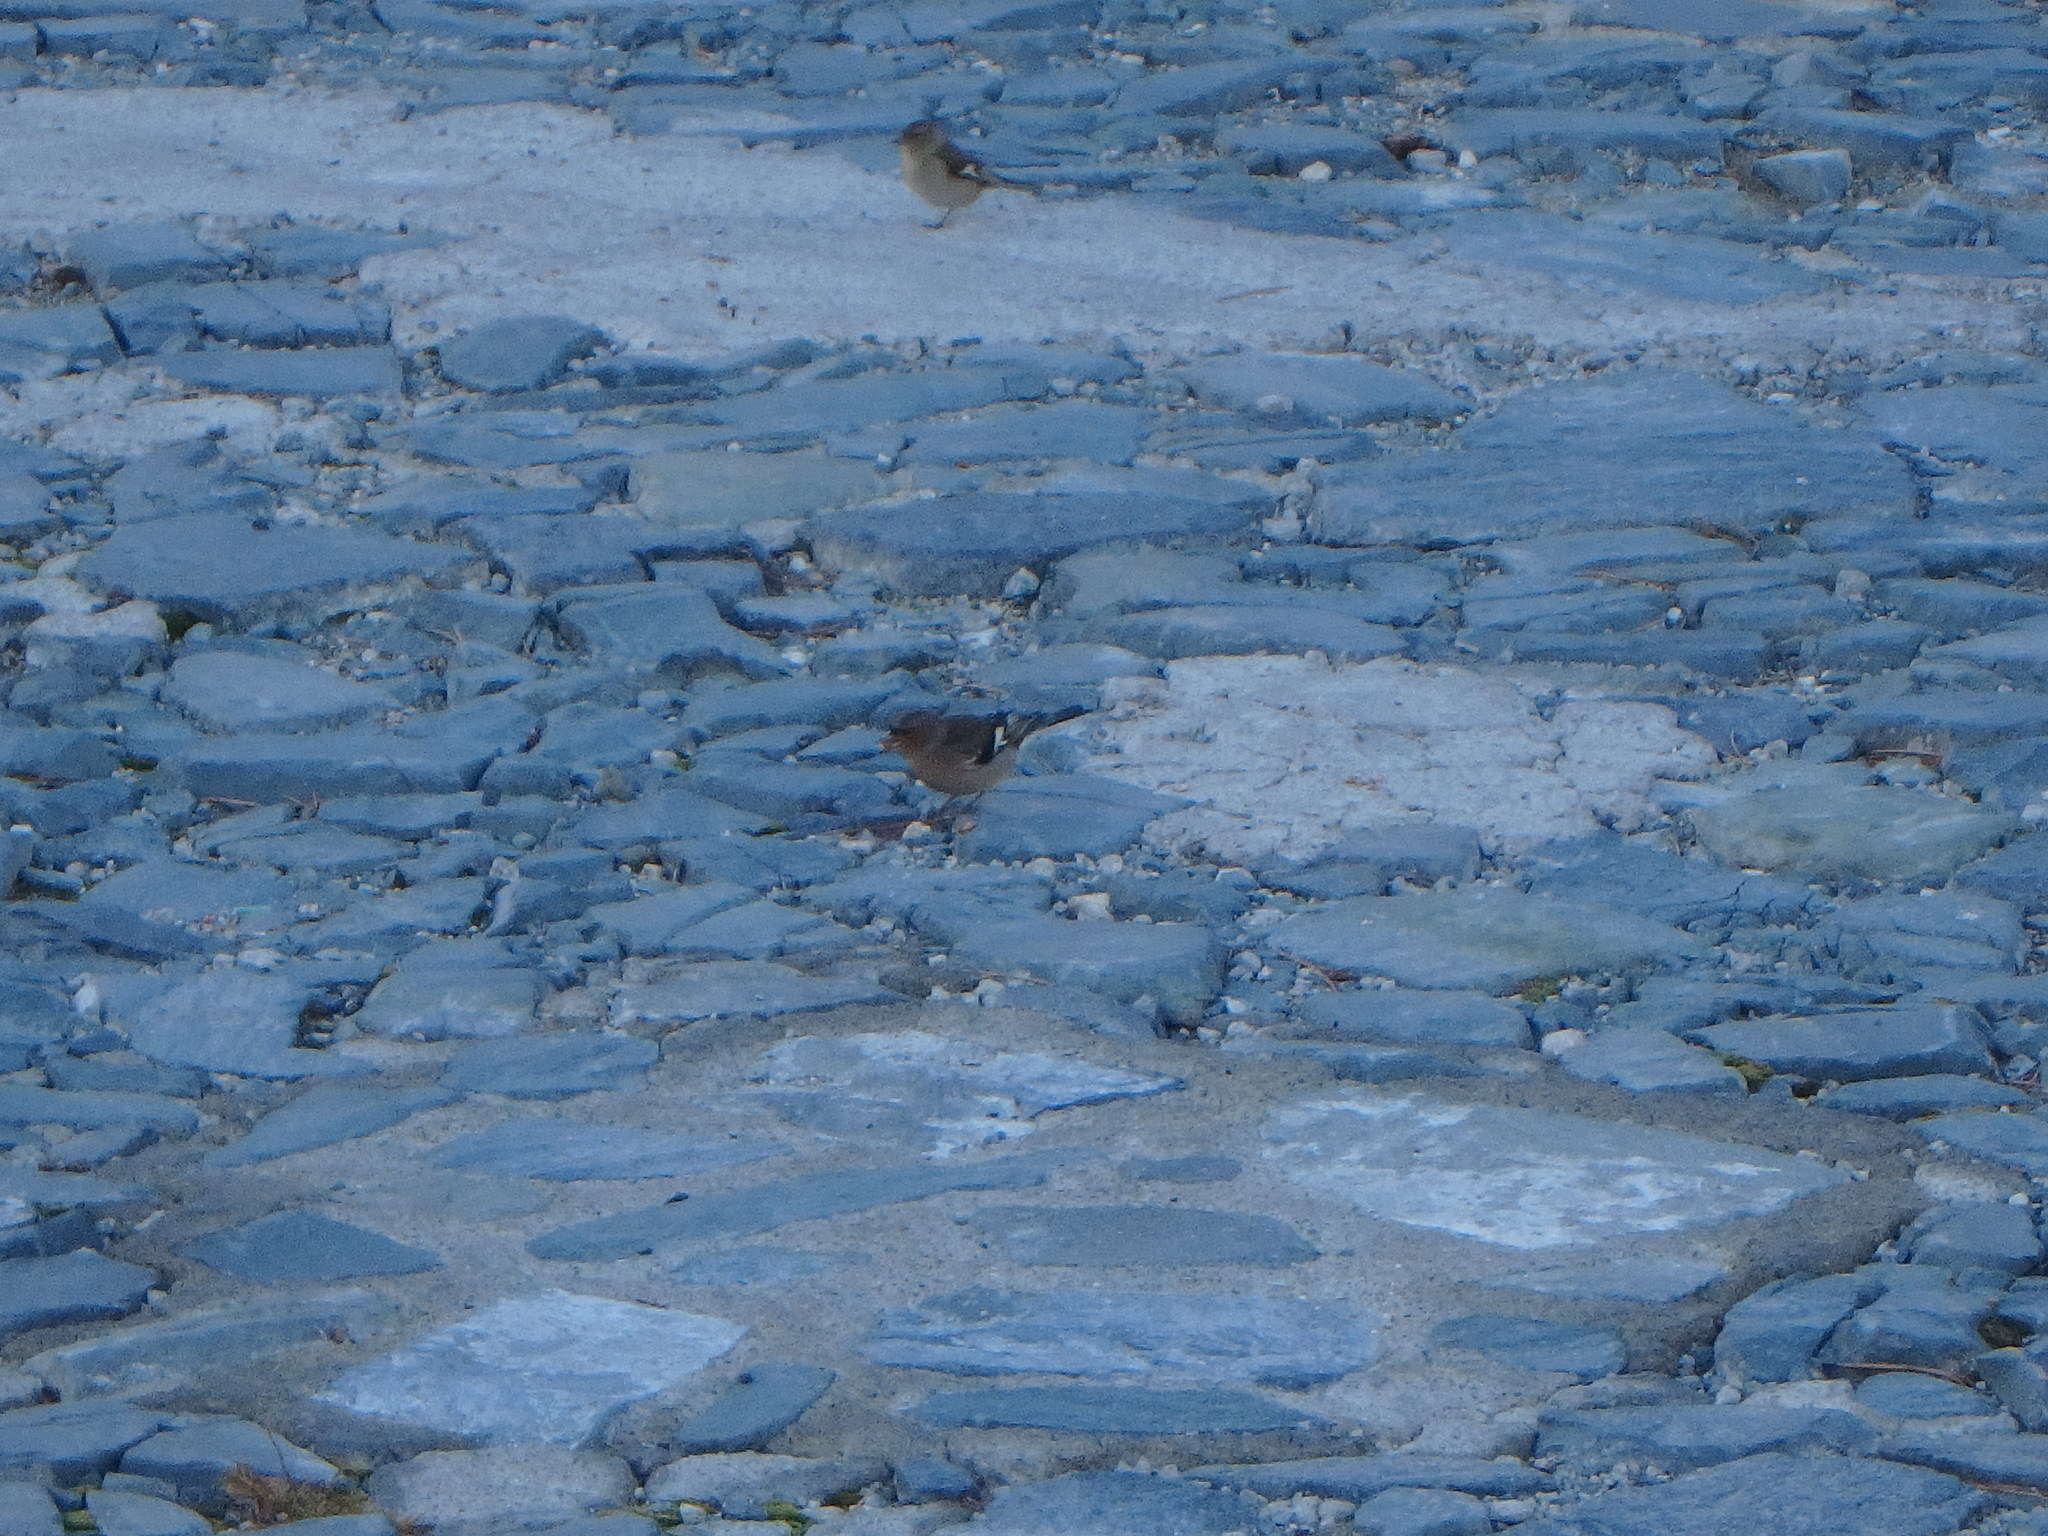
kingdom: Animalia
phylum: Chordata
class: Aves
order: Passeriformes
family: Fringillidae
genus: Fringilla
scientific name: Fringilla coelebs
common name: Common chaffinch
